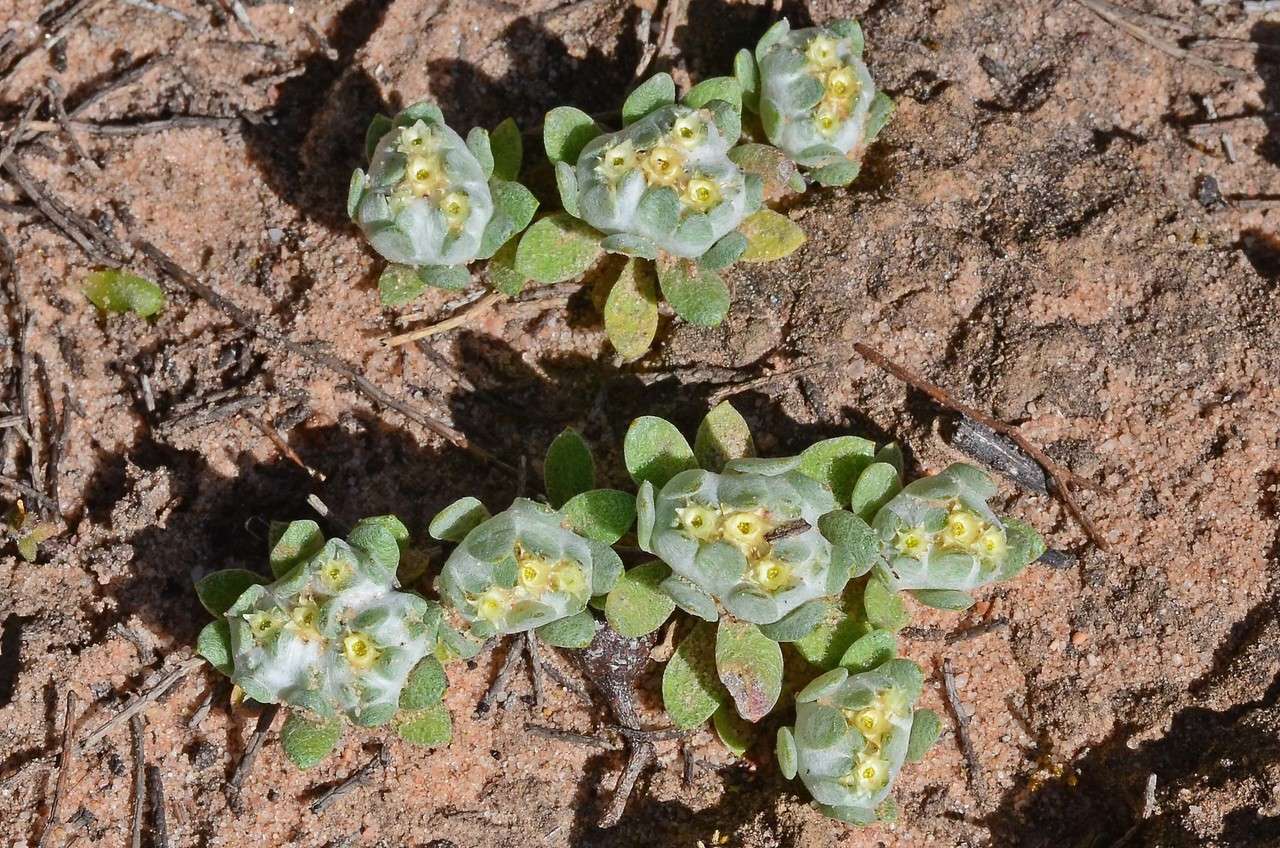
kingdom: Plantae
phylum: Tracheophyta
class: Magnoliopsida
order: Asterales
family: Asteraceae
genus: Actinobole
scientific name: Actinobole uliginosum
